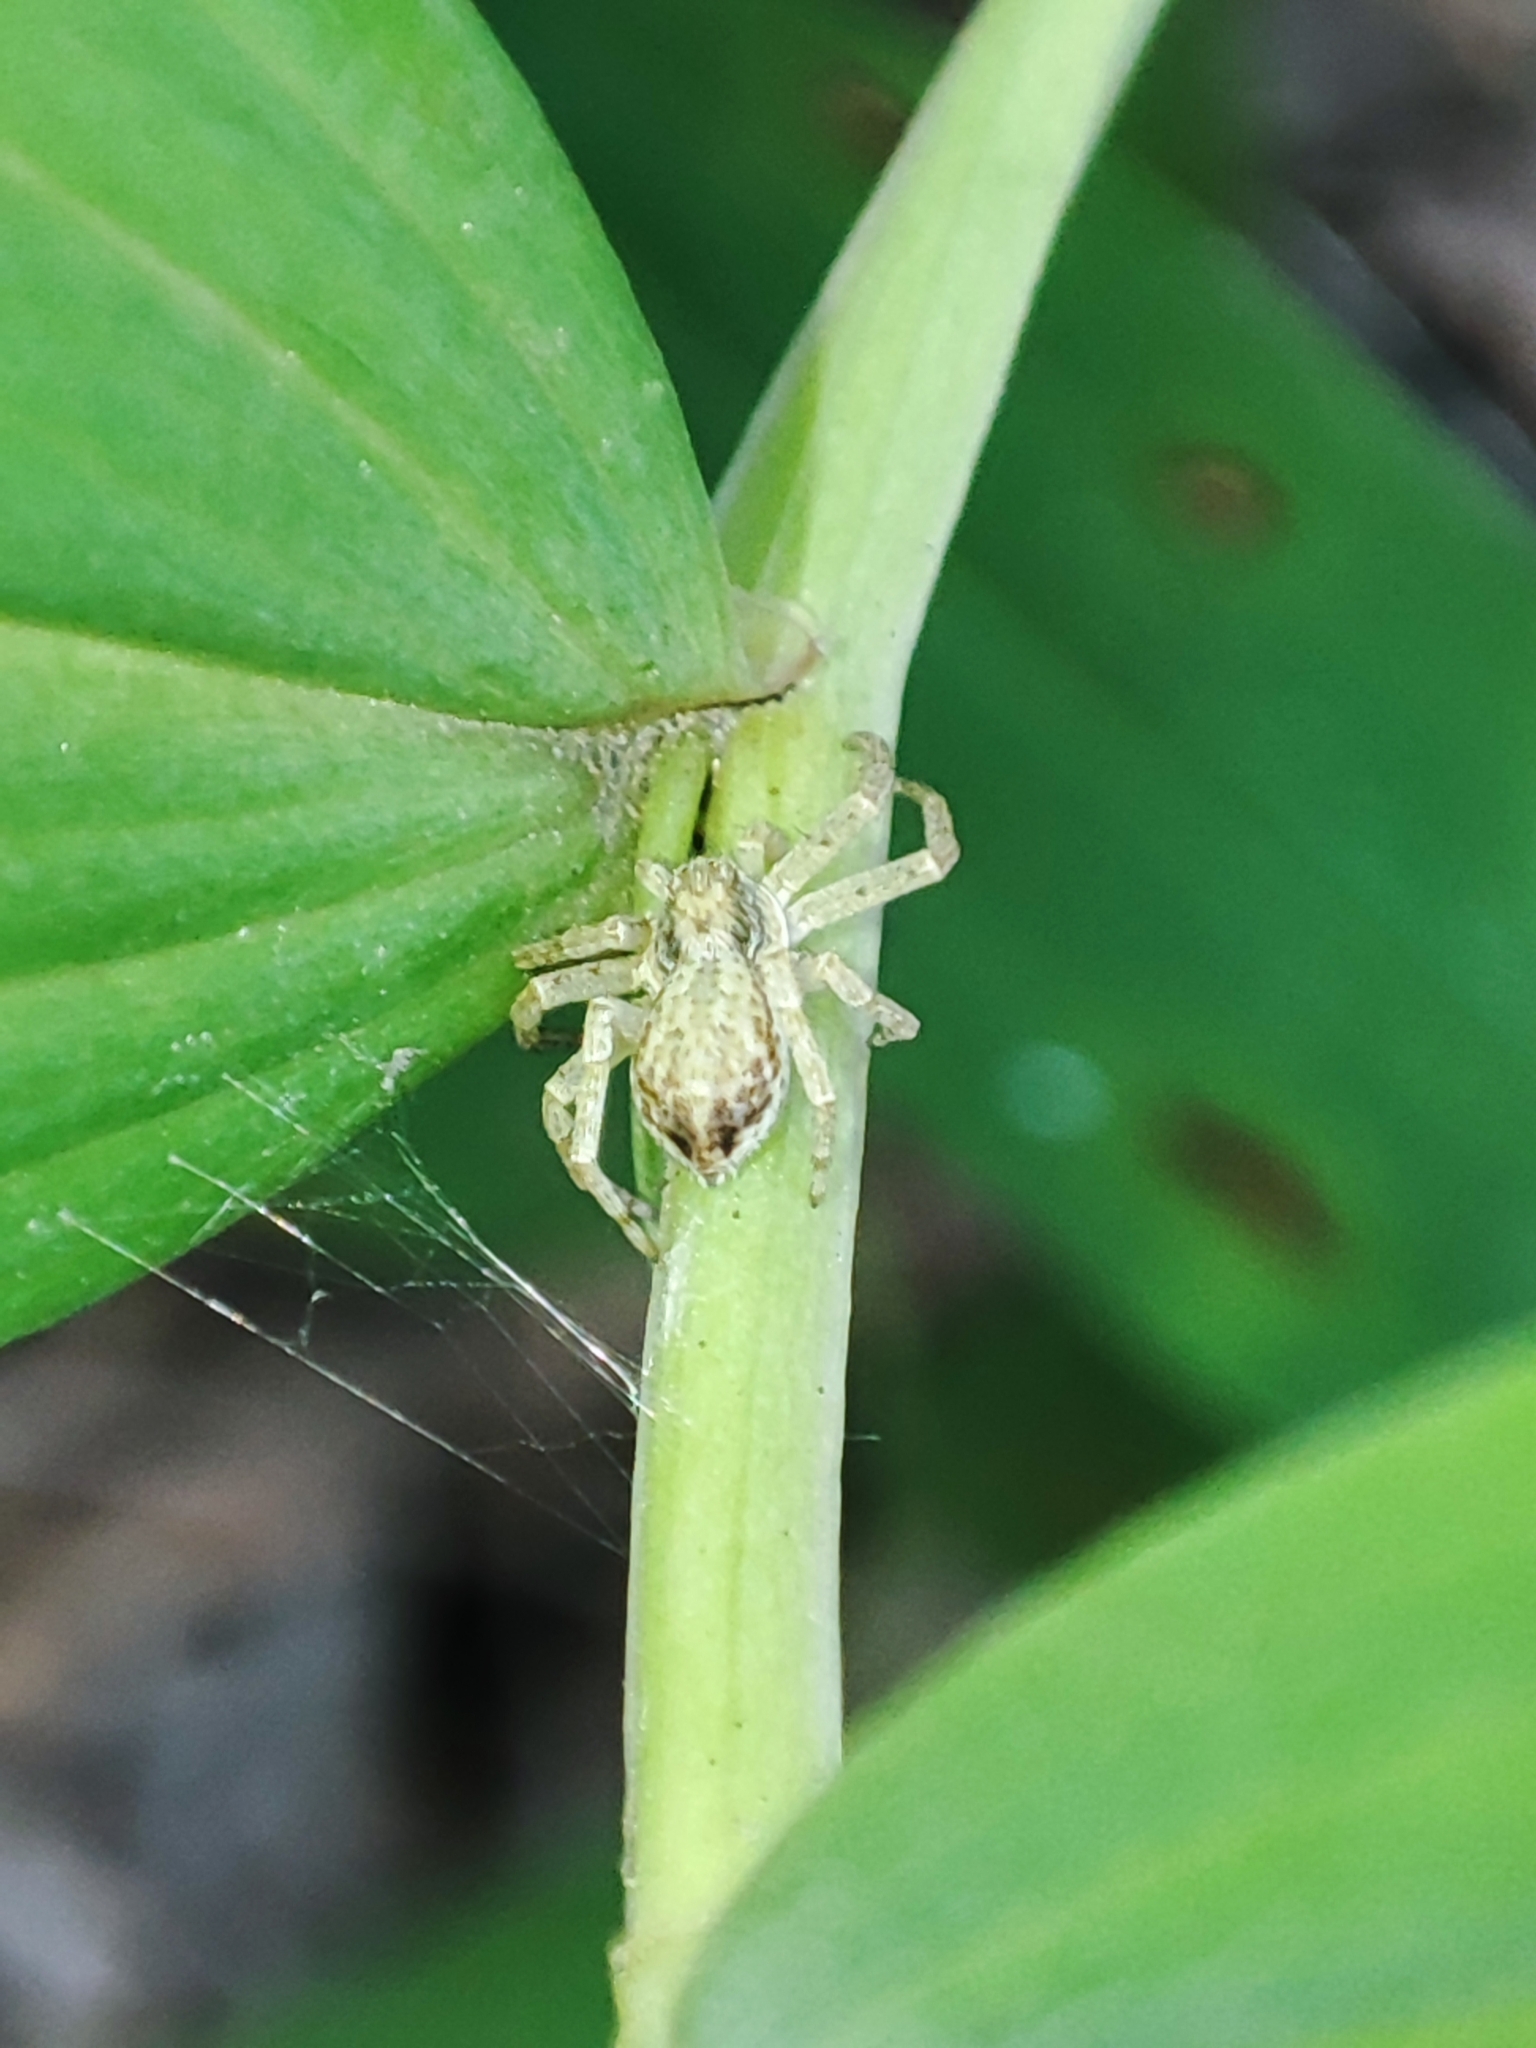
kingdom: Animalia
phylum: Arthropoda
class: Arachnida
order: Araneae
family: Philodromidae
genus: Philodromus
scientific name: Philodromus dispar
